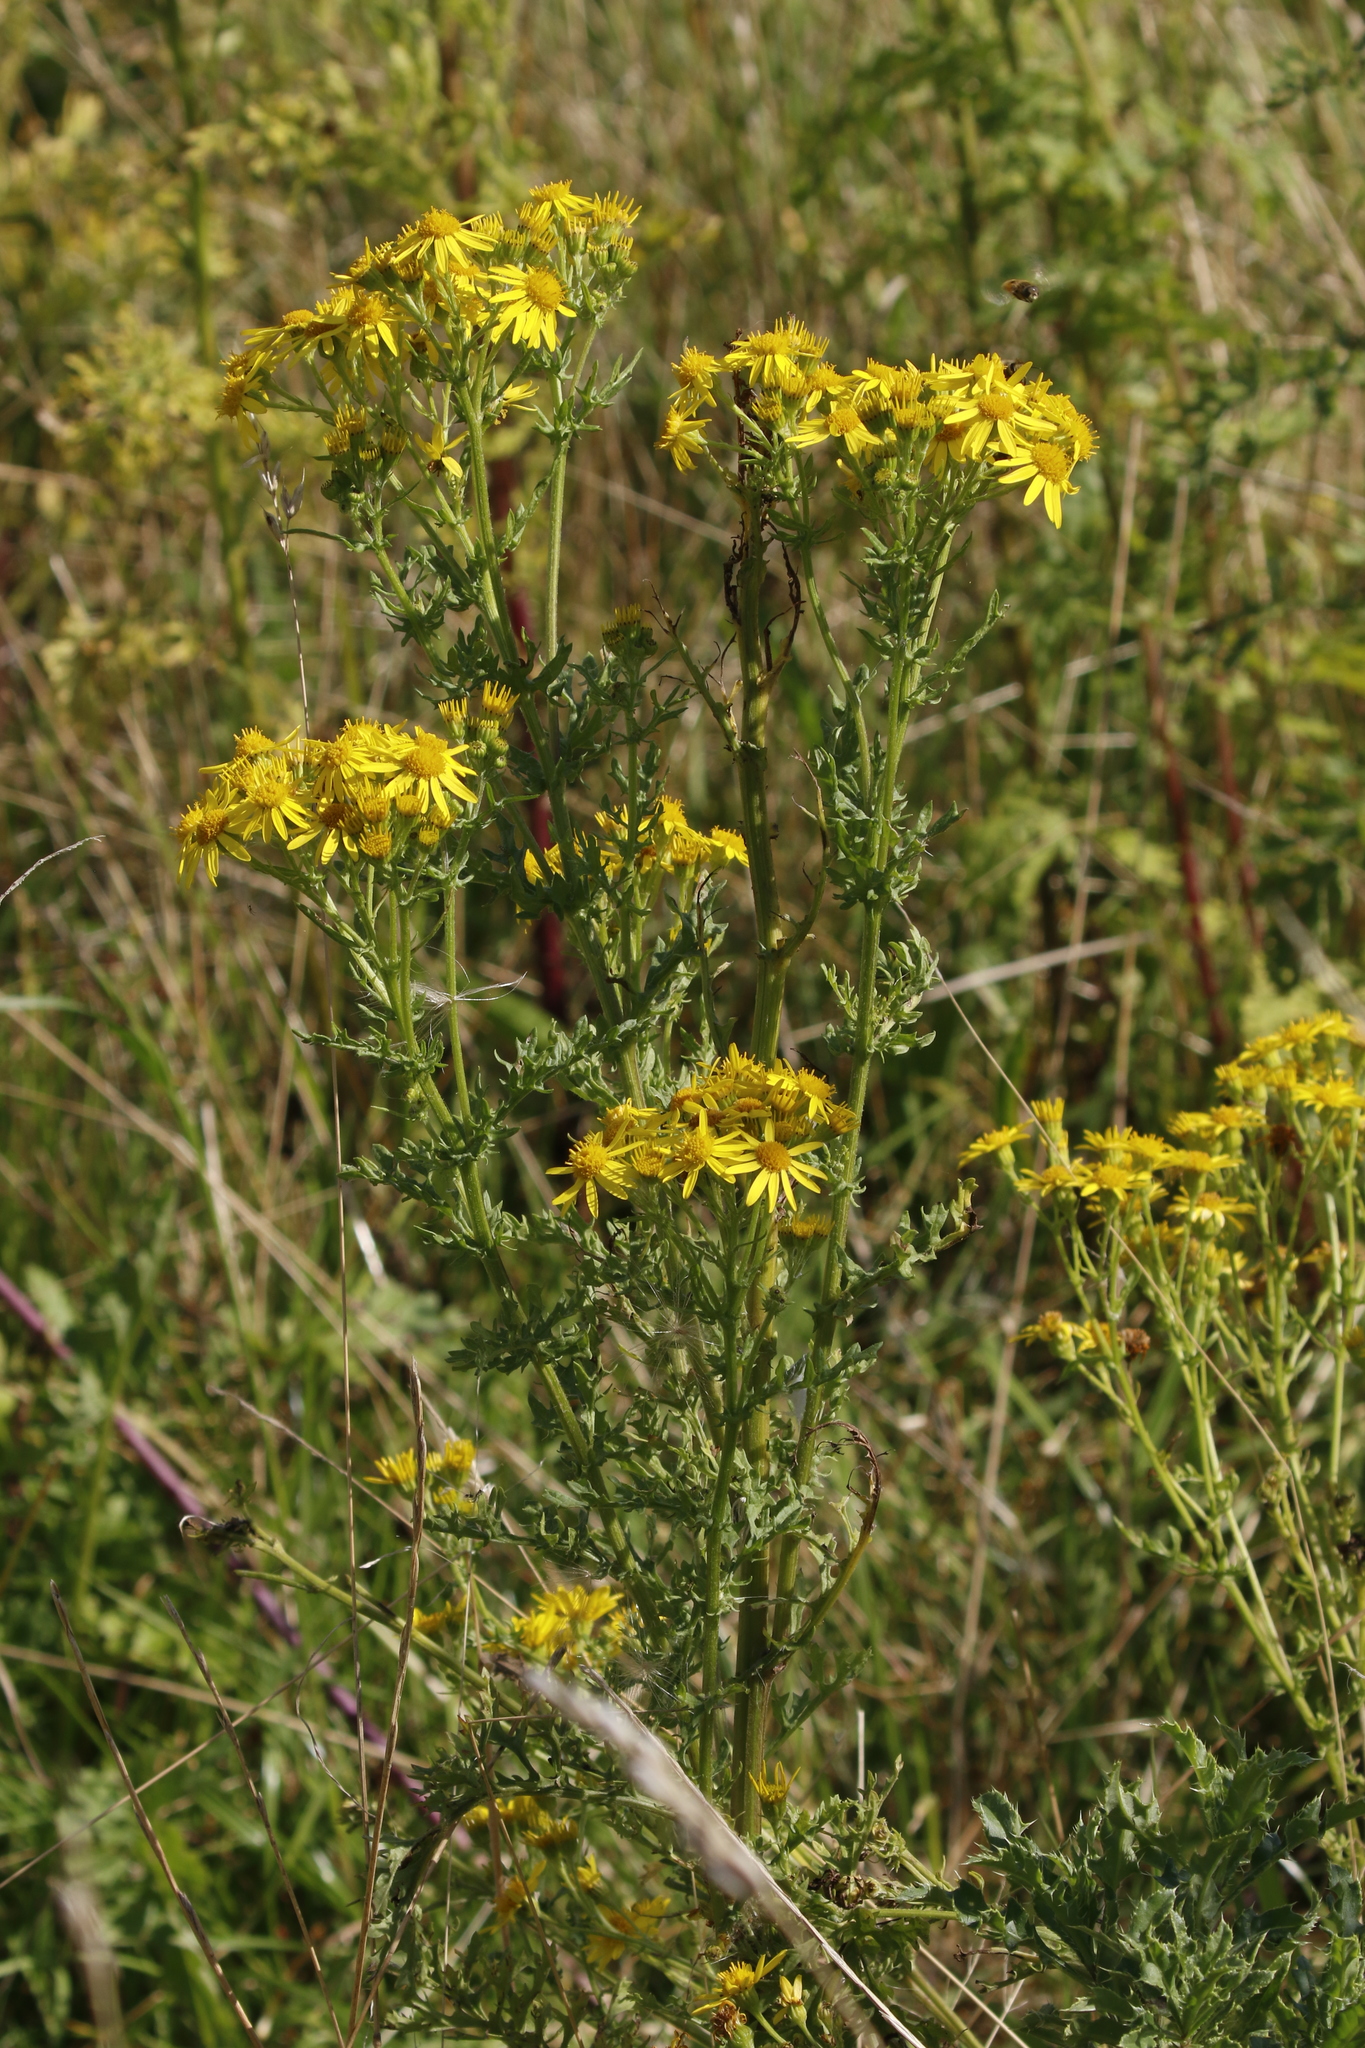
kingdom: Plantae
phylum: Tracheophyta
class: Magnoliopsida
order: Asterales
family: Asteraceae
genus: Jacobaea
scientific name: Jacobaea vulgaris
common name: Stinking willie
